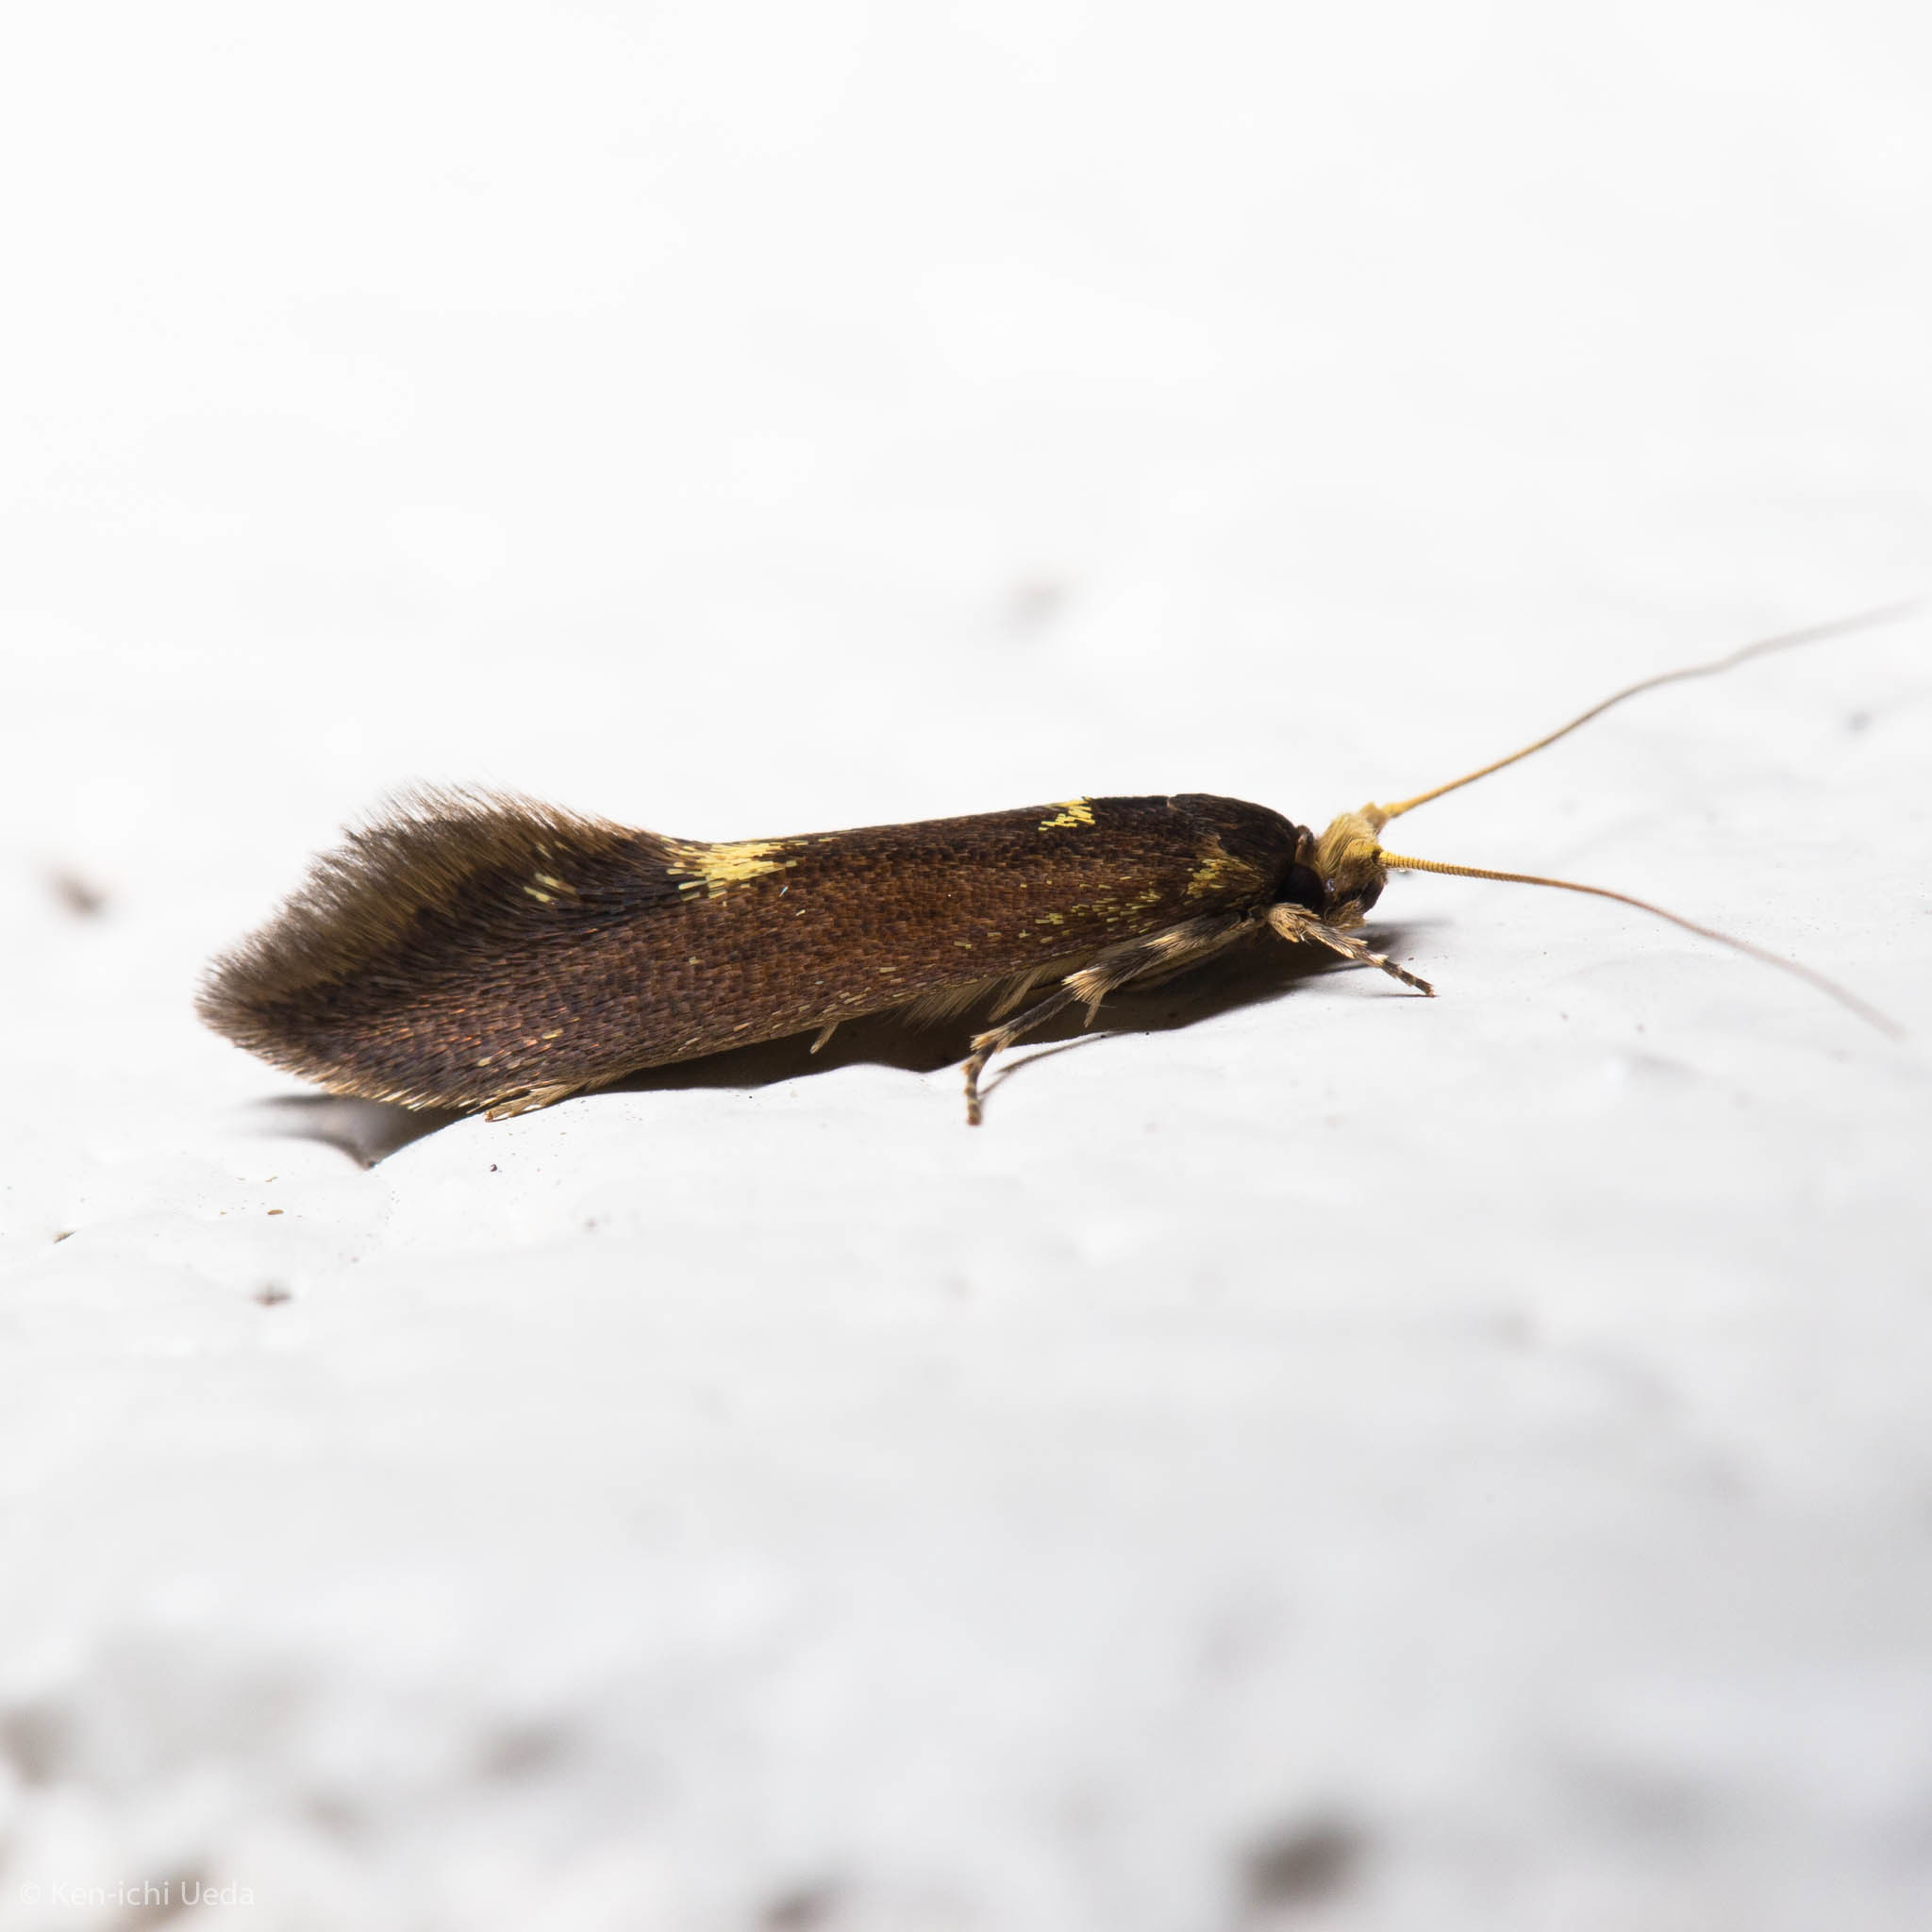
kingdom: Animalia
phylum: Arthropoda
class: Insecta
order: Lepidoptera
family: Tineidae
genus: Opogona
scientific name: Opogona omoscopa
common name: Moth
